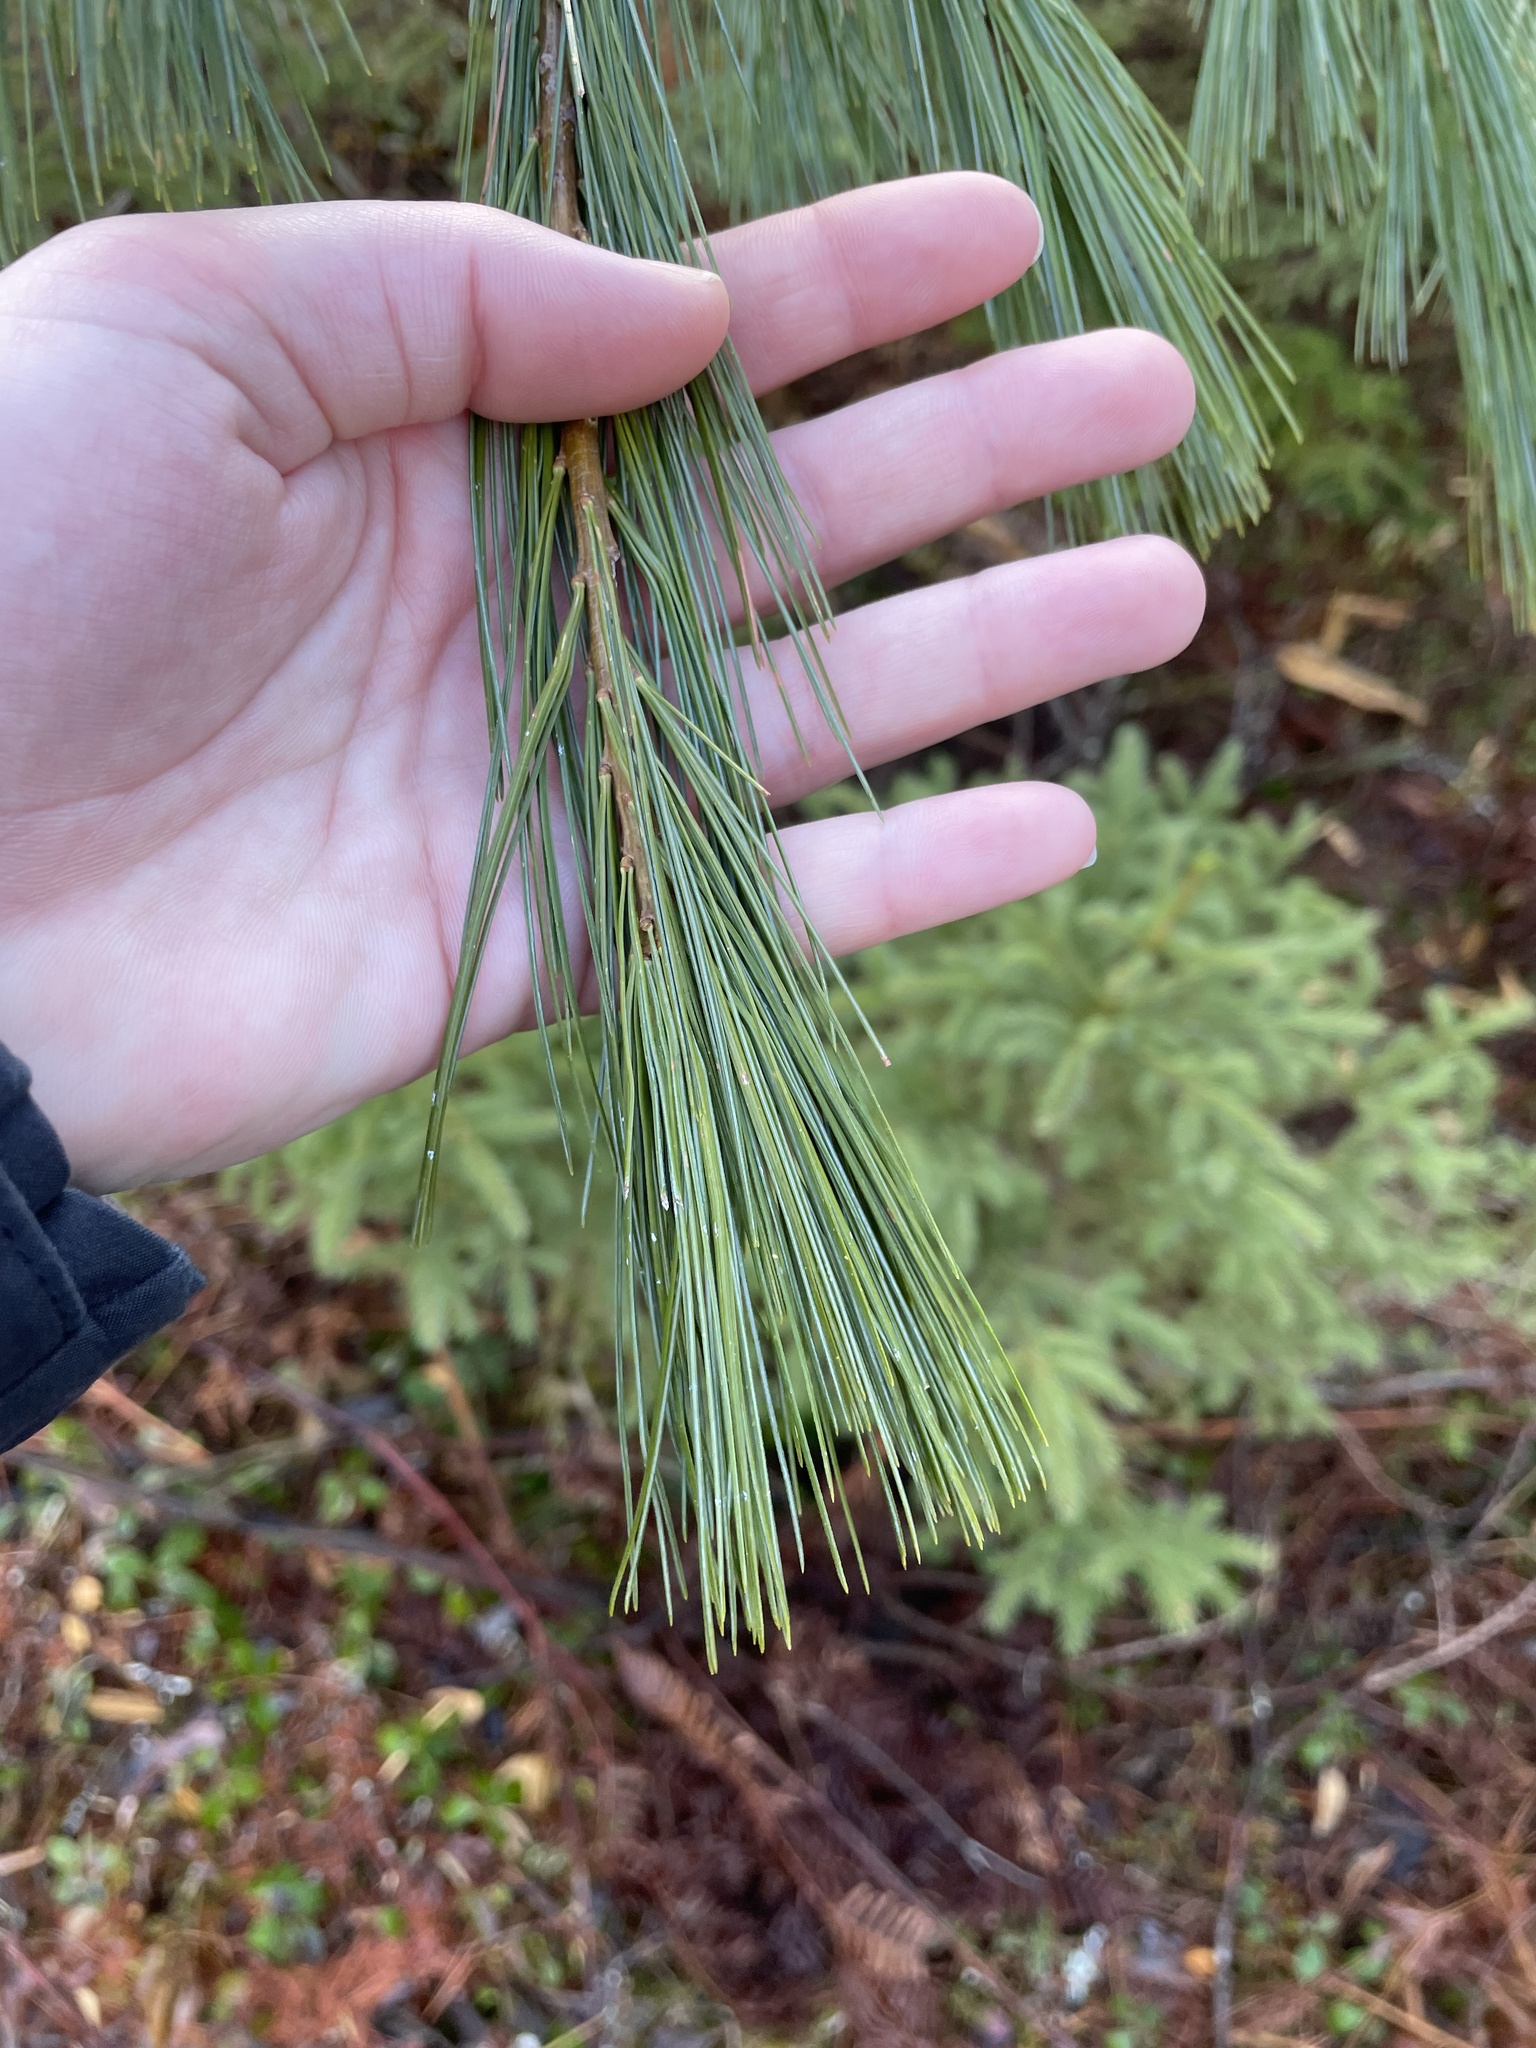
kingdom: Plantae
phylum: Tracheophyta
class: Pinopsida
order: Pinales
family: Pinaceae
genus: Pinus
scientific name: Pinus strobus
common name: Weymouth pine
